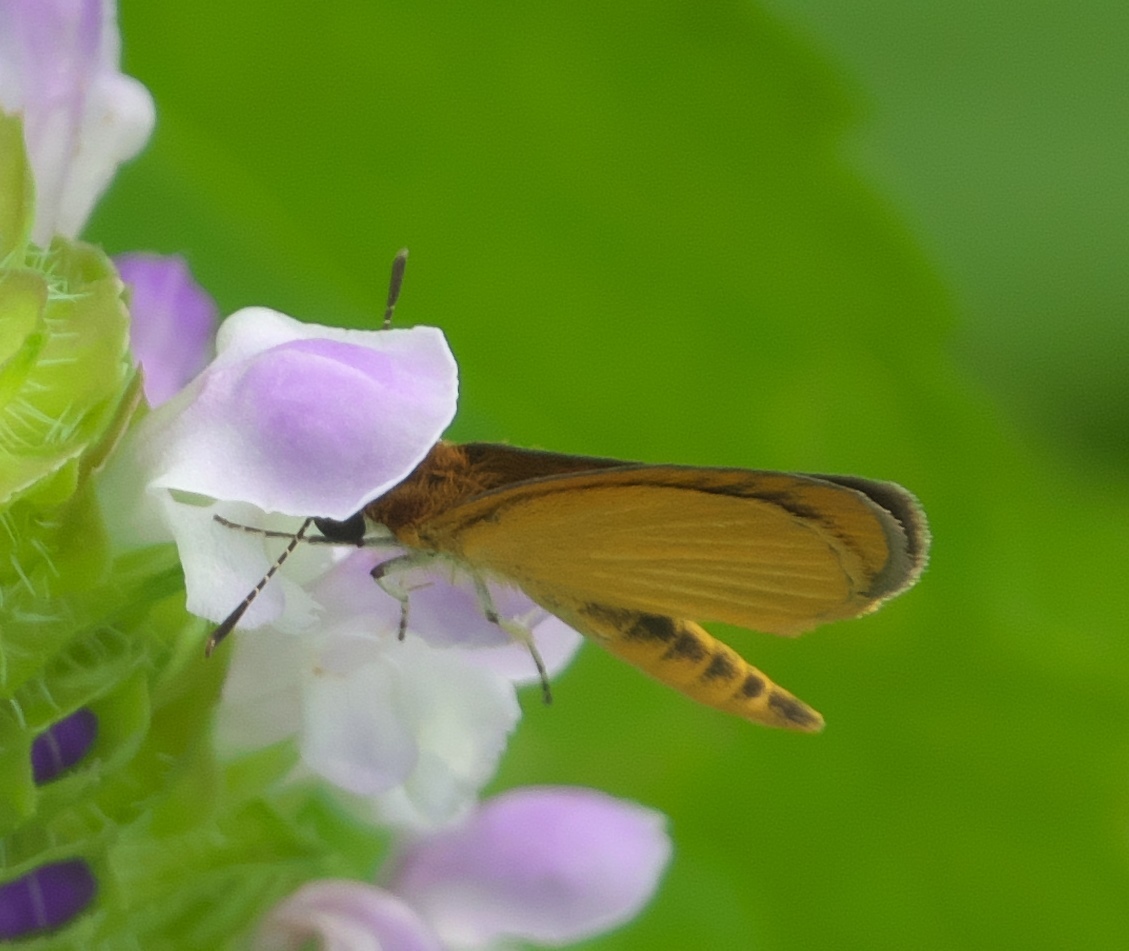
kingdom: Animalia
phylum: Arthropoda
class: Insecta
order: Lepidoptera
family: Hesperiidae
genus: Ancyloxypha
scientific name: Ancyloxypha numitor
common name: Least skipper
